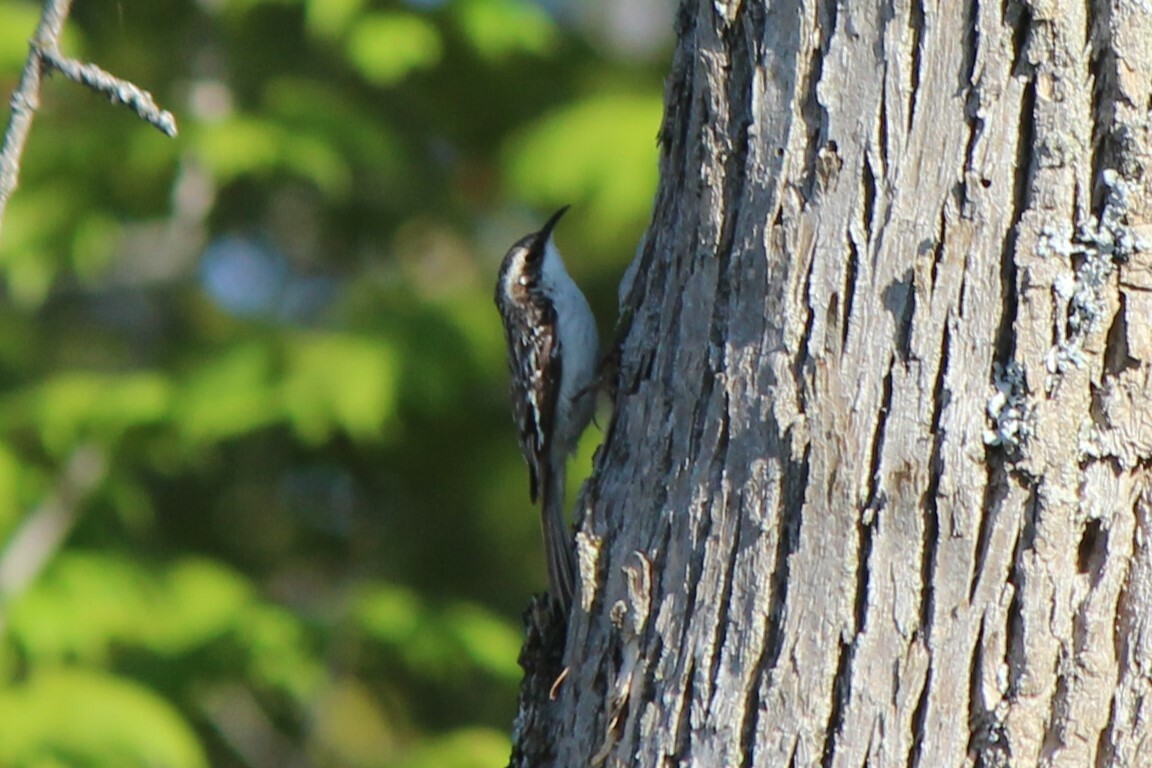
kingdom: Animalia
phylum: Chordata
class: Aves
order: Passeriformes
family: Certhiidae
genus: Certhia
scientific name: Certhia americana
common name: Brown creeper
